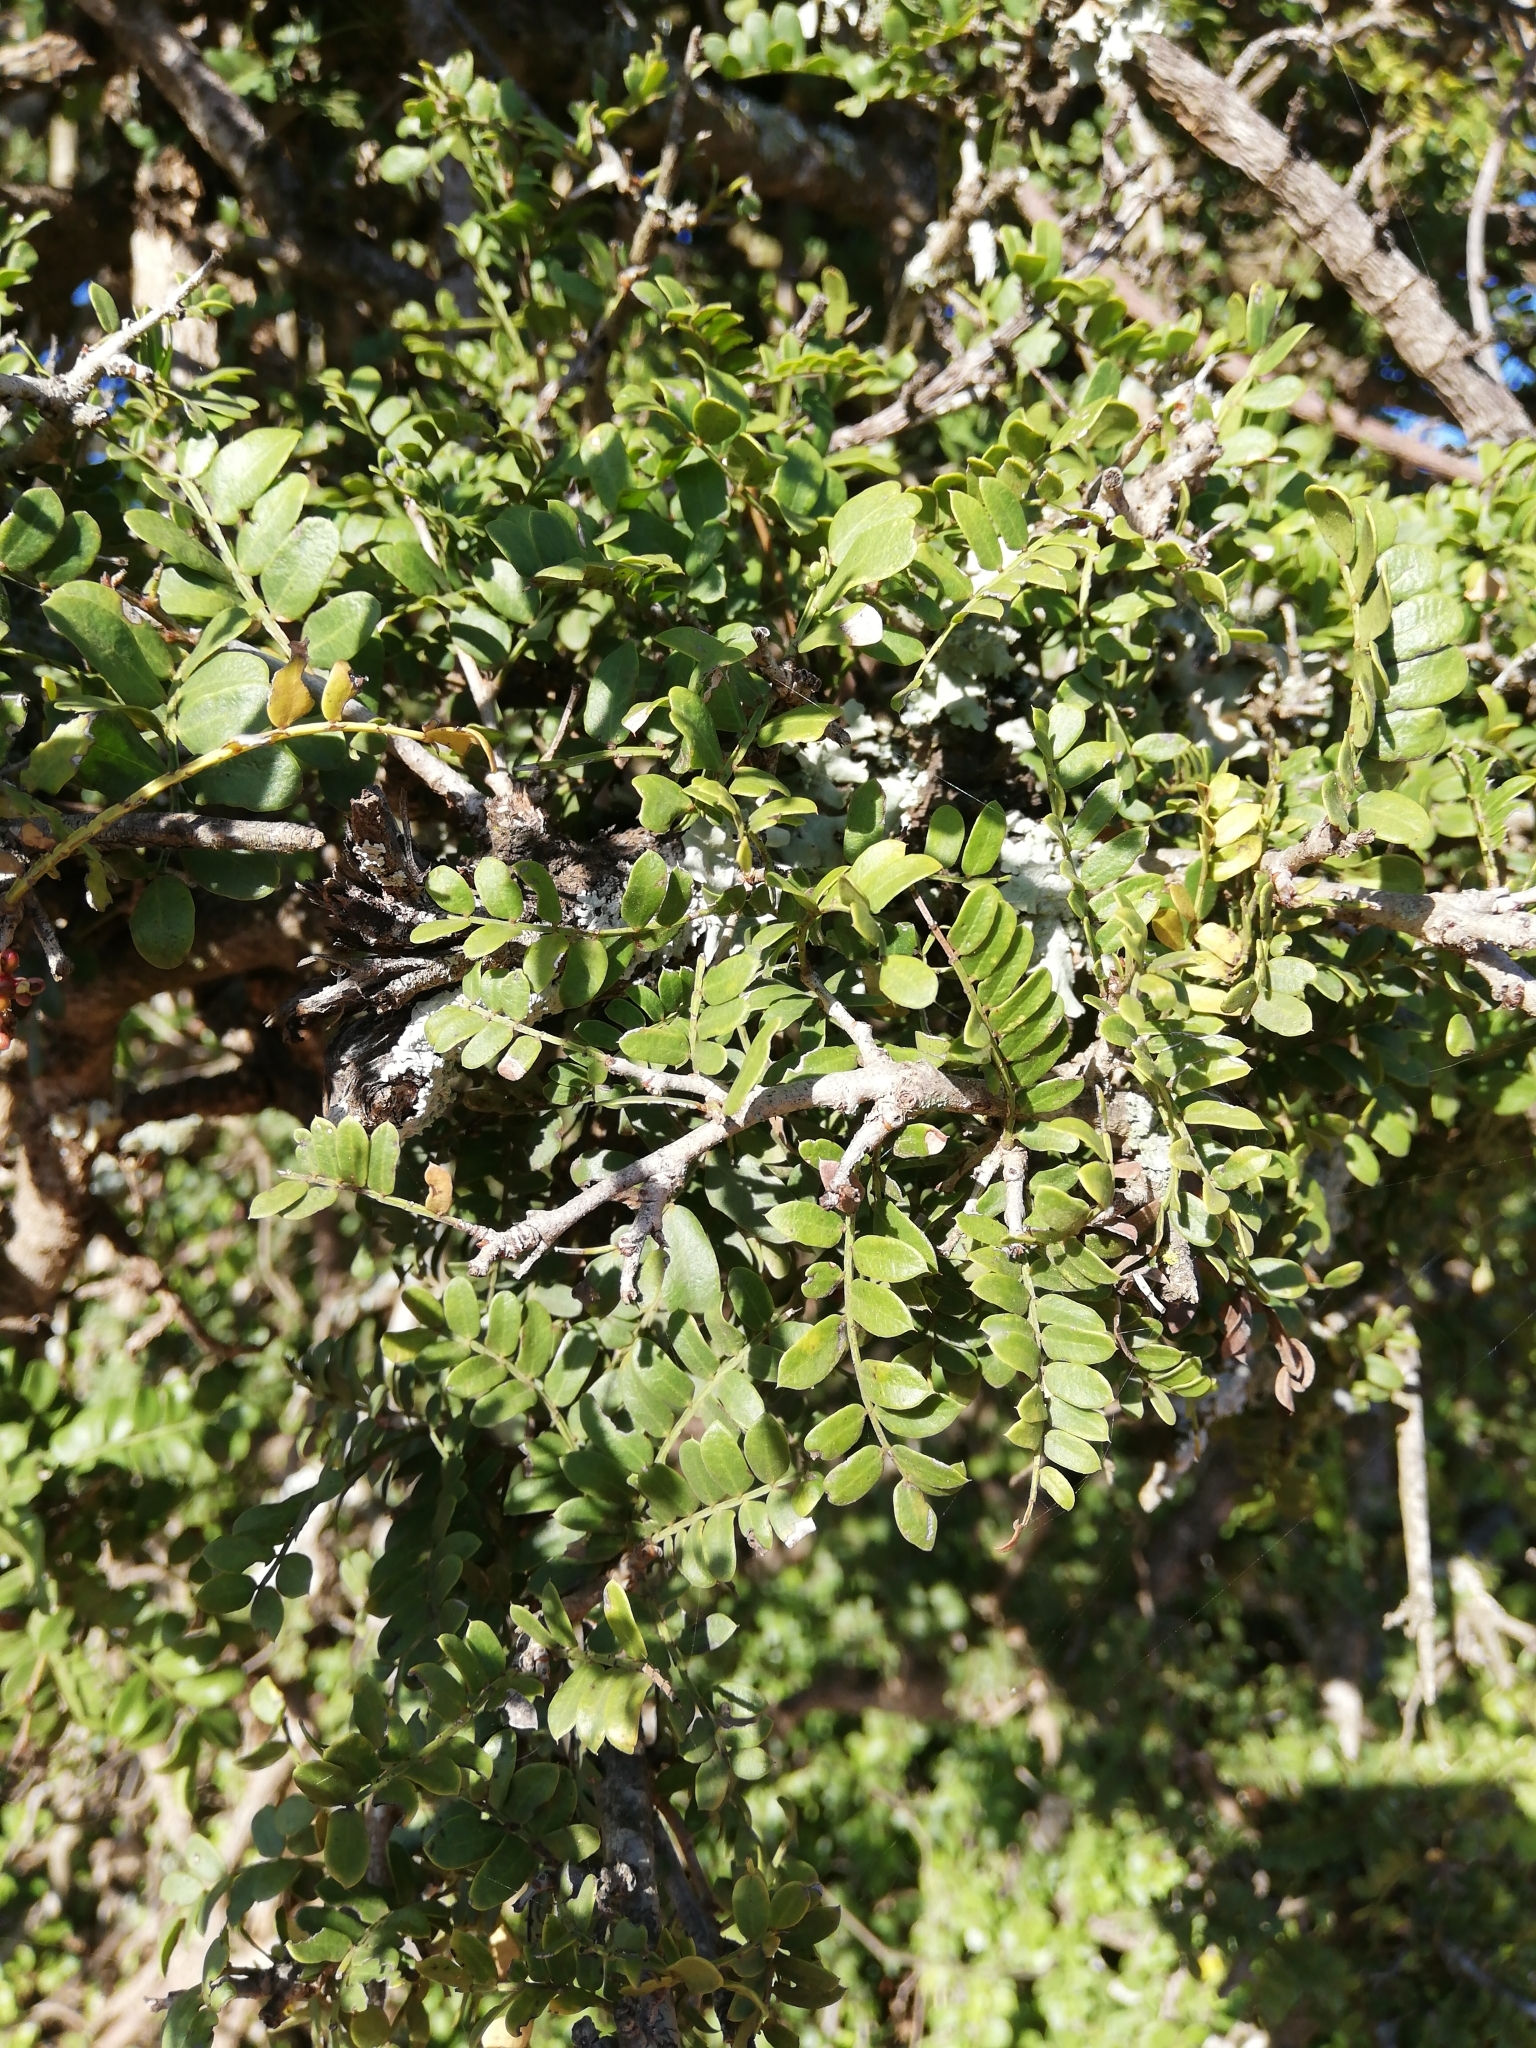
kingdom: Plantae
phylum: Tracheophyta
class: Magnoliopsida
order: Fabales
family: Fabaceae
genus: Schotia
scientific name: Schotia afra
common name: Hottentot's bean
